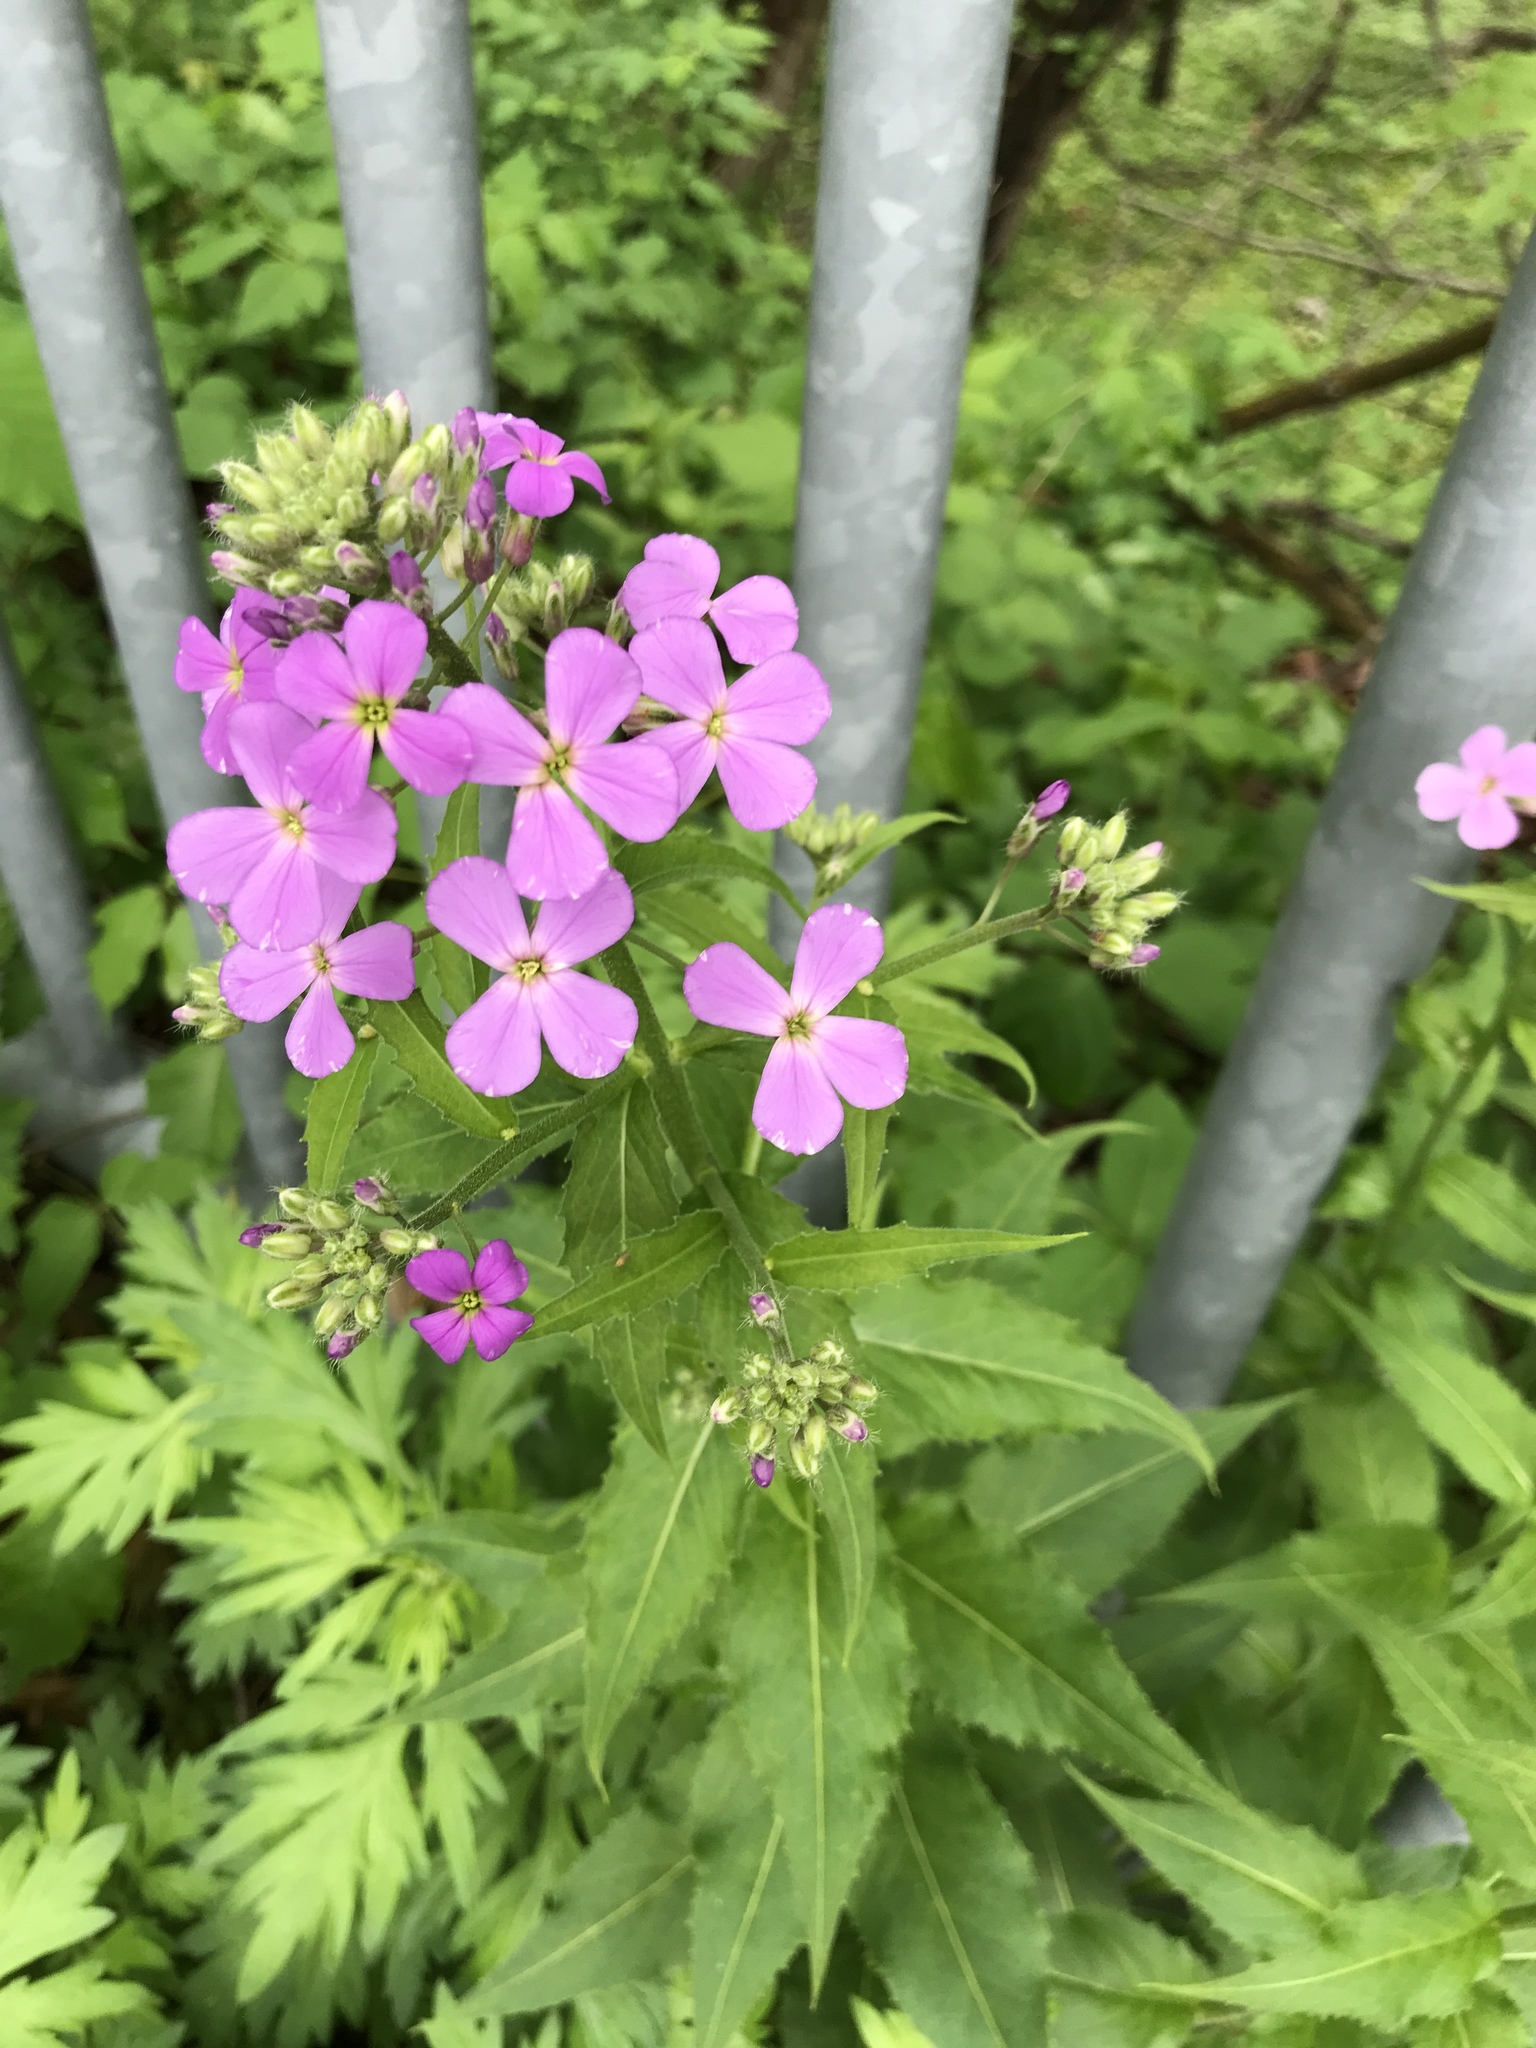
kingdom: Plantae
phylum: Tracheophyta
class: Magnoliopsida
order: Brassicales
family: Brassicaceae
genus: Hesperis
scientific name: Hesperis matronalis
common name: Dame's-violet
